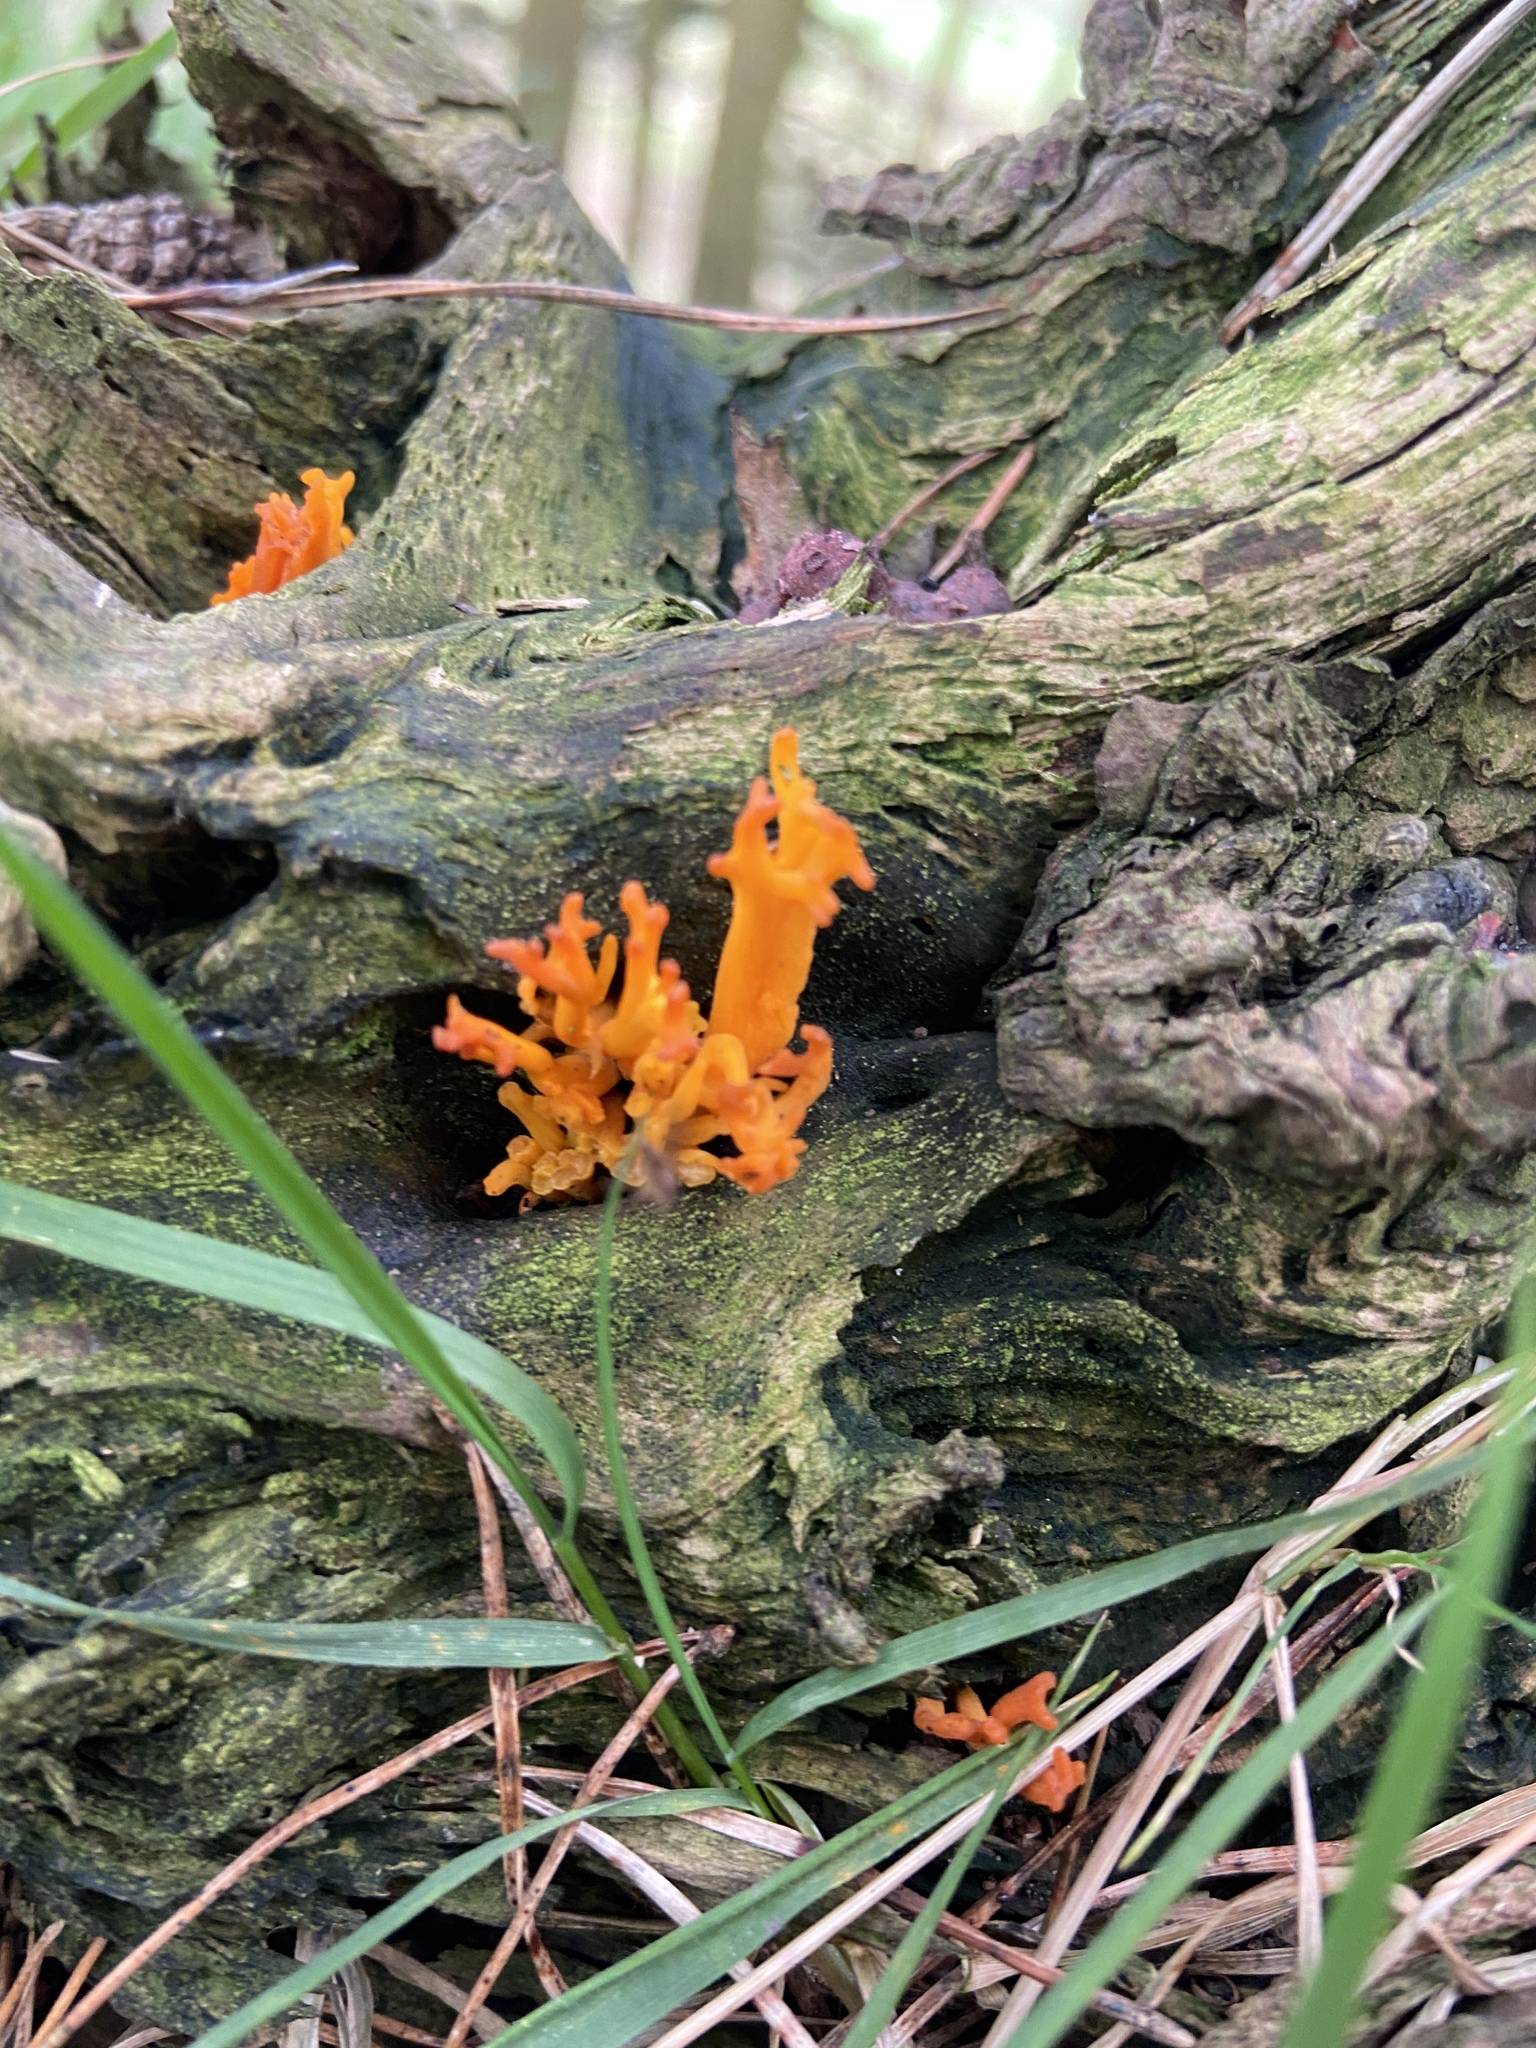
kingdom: Fungi
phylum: Basidiomycota
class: Dacrymycetes
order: Dacrymycetales
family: Dacrymycetaceae
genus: Calocera
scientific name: Calocera viscosa
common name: Yellow stagshorn
